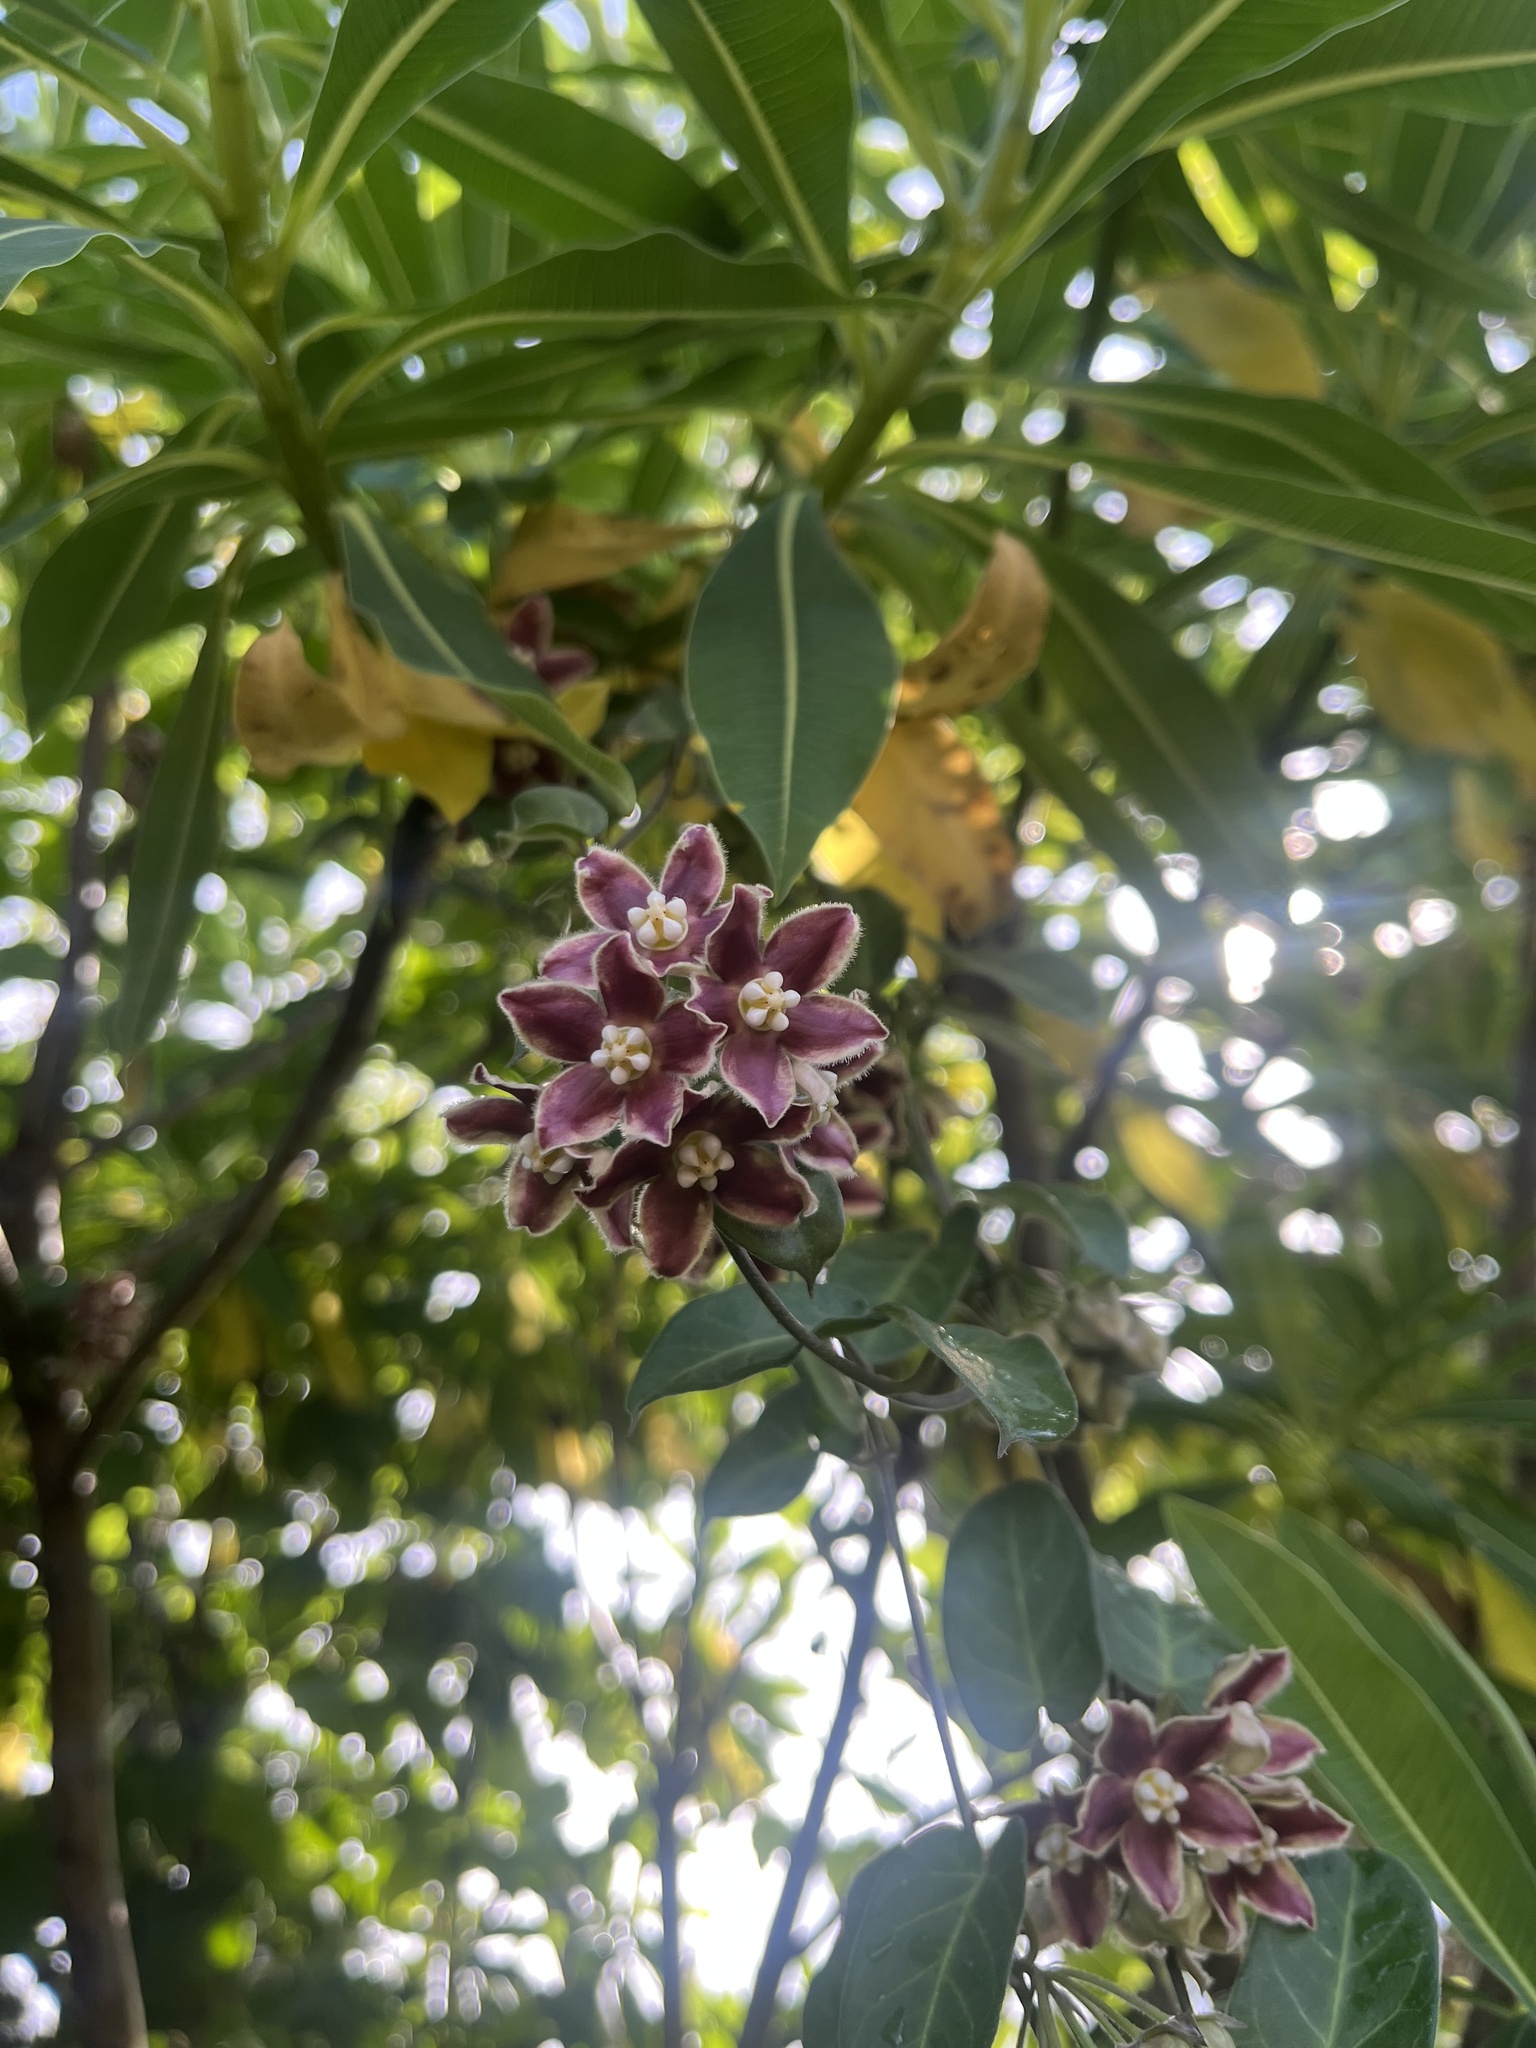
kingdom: Plantae
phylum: Tracheophyta
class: Magnoliopsida
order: Gentianales
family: Apocynaceae
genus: Funastrum
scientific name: Funastrum elegans
